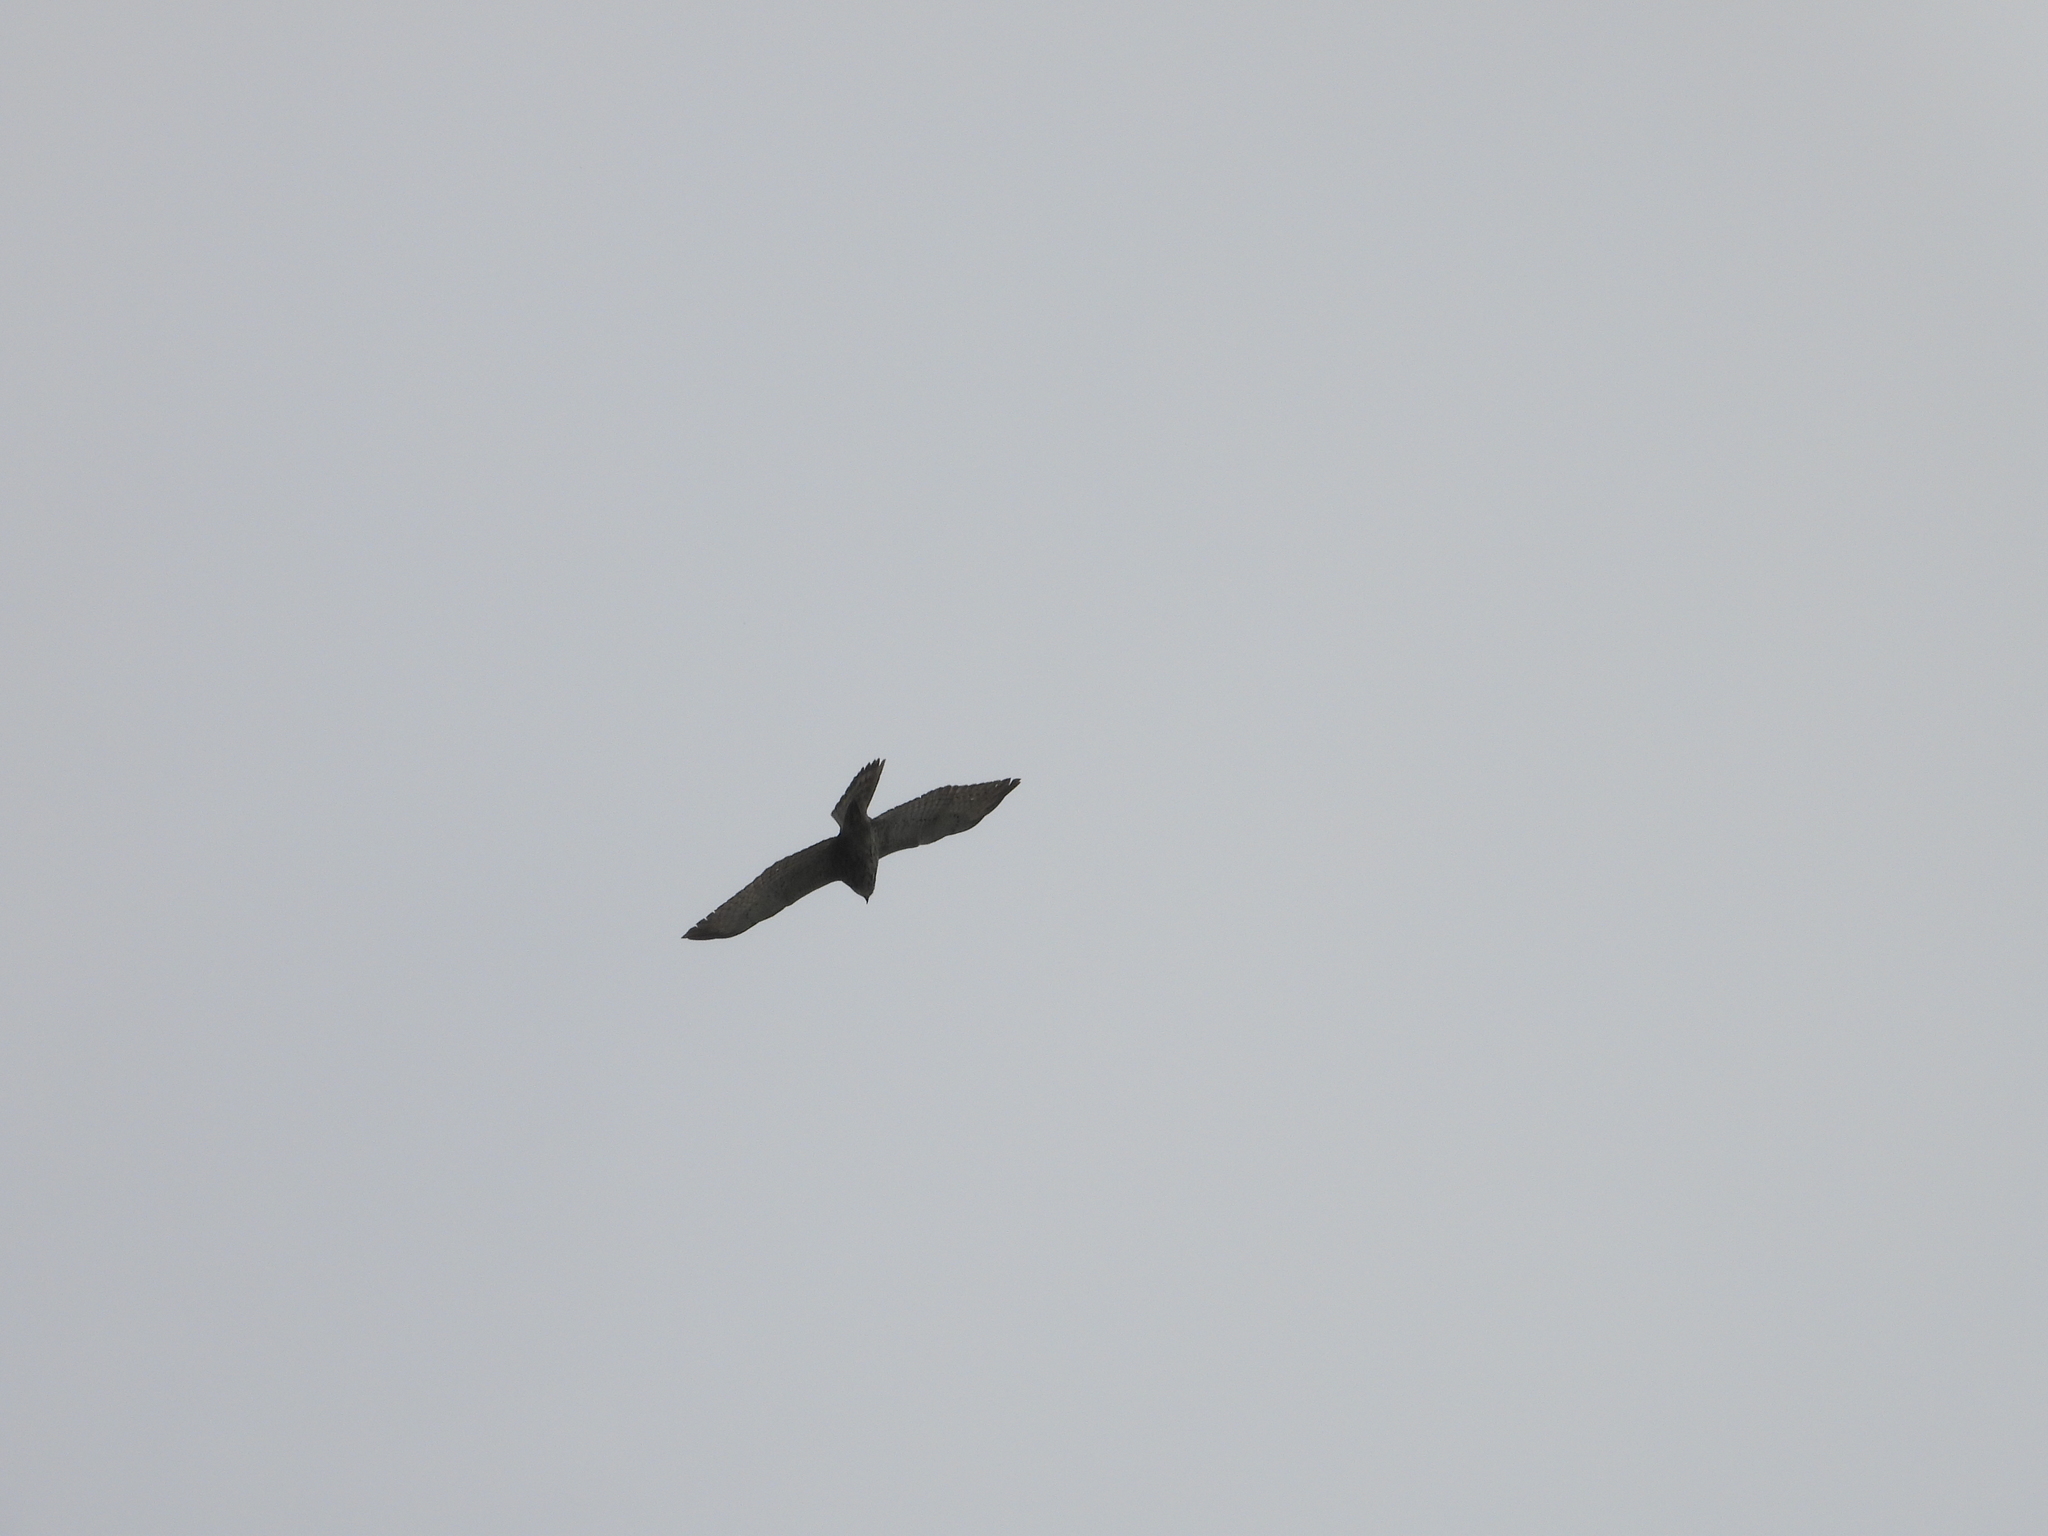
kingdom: Animalia
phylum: Chordata
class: Aves
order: Accipitriformes
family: Accipitridae
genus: Buteo
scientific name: Buteo platypterus
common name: Broad-winged hawk
